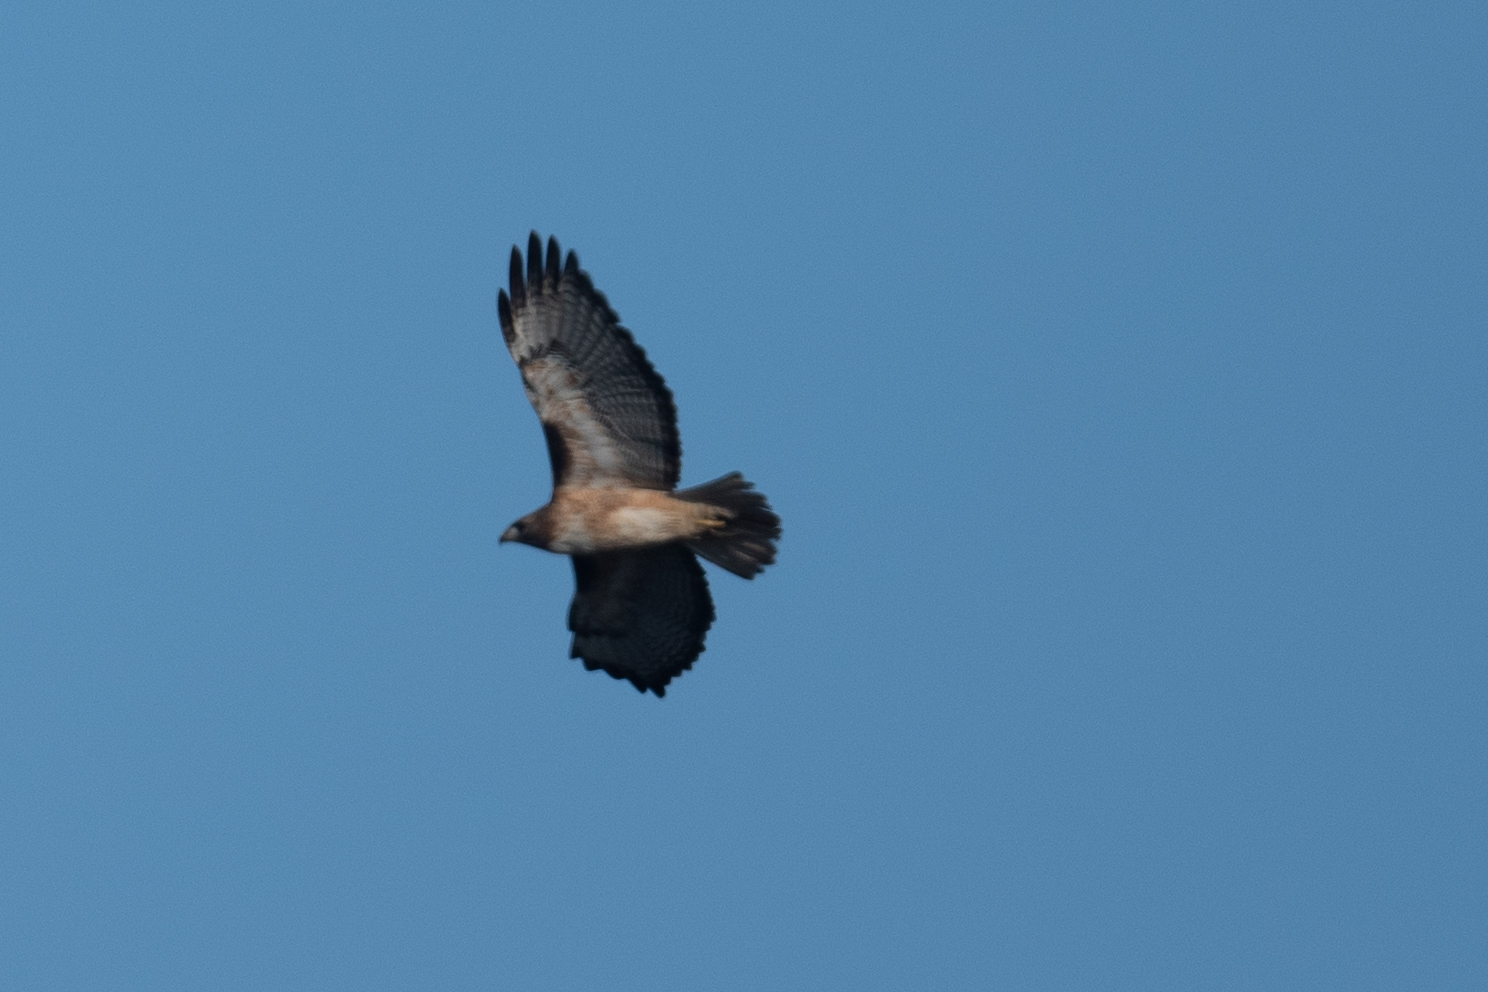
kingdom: Animalia
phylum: Chordata
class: Aves
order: Accipitriformes
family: Accipitridae
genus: Buteo
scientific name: Buteo jamaicensis
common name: Red-tailed hawk
